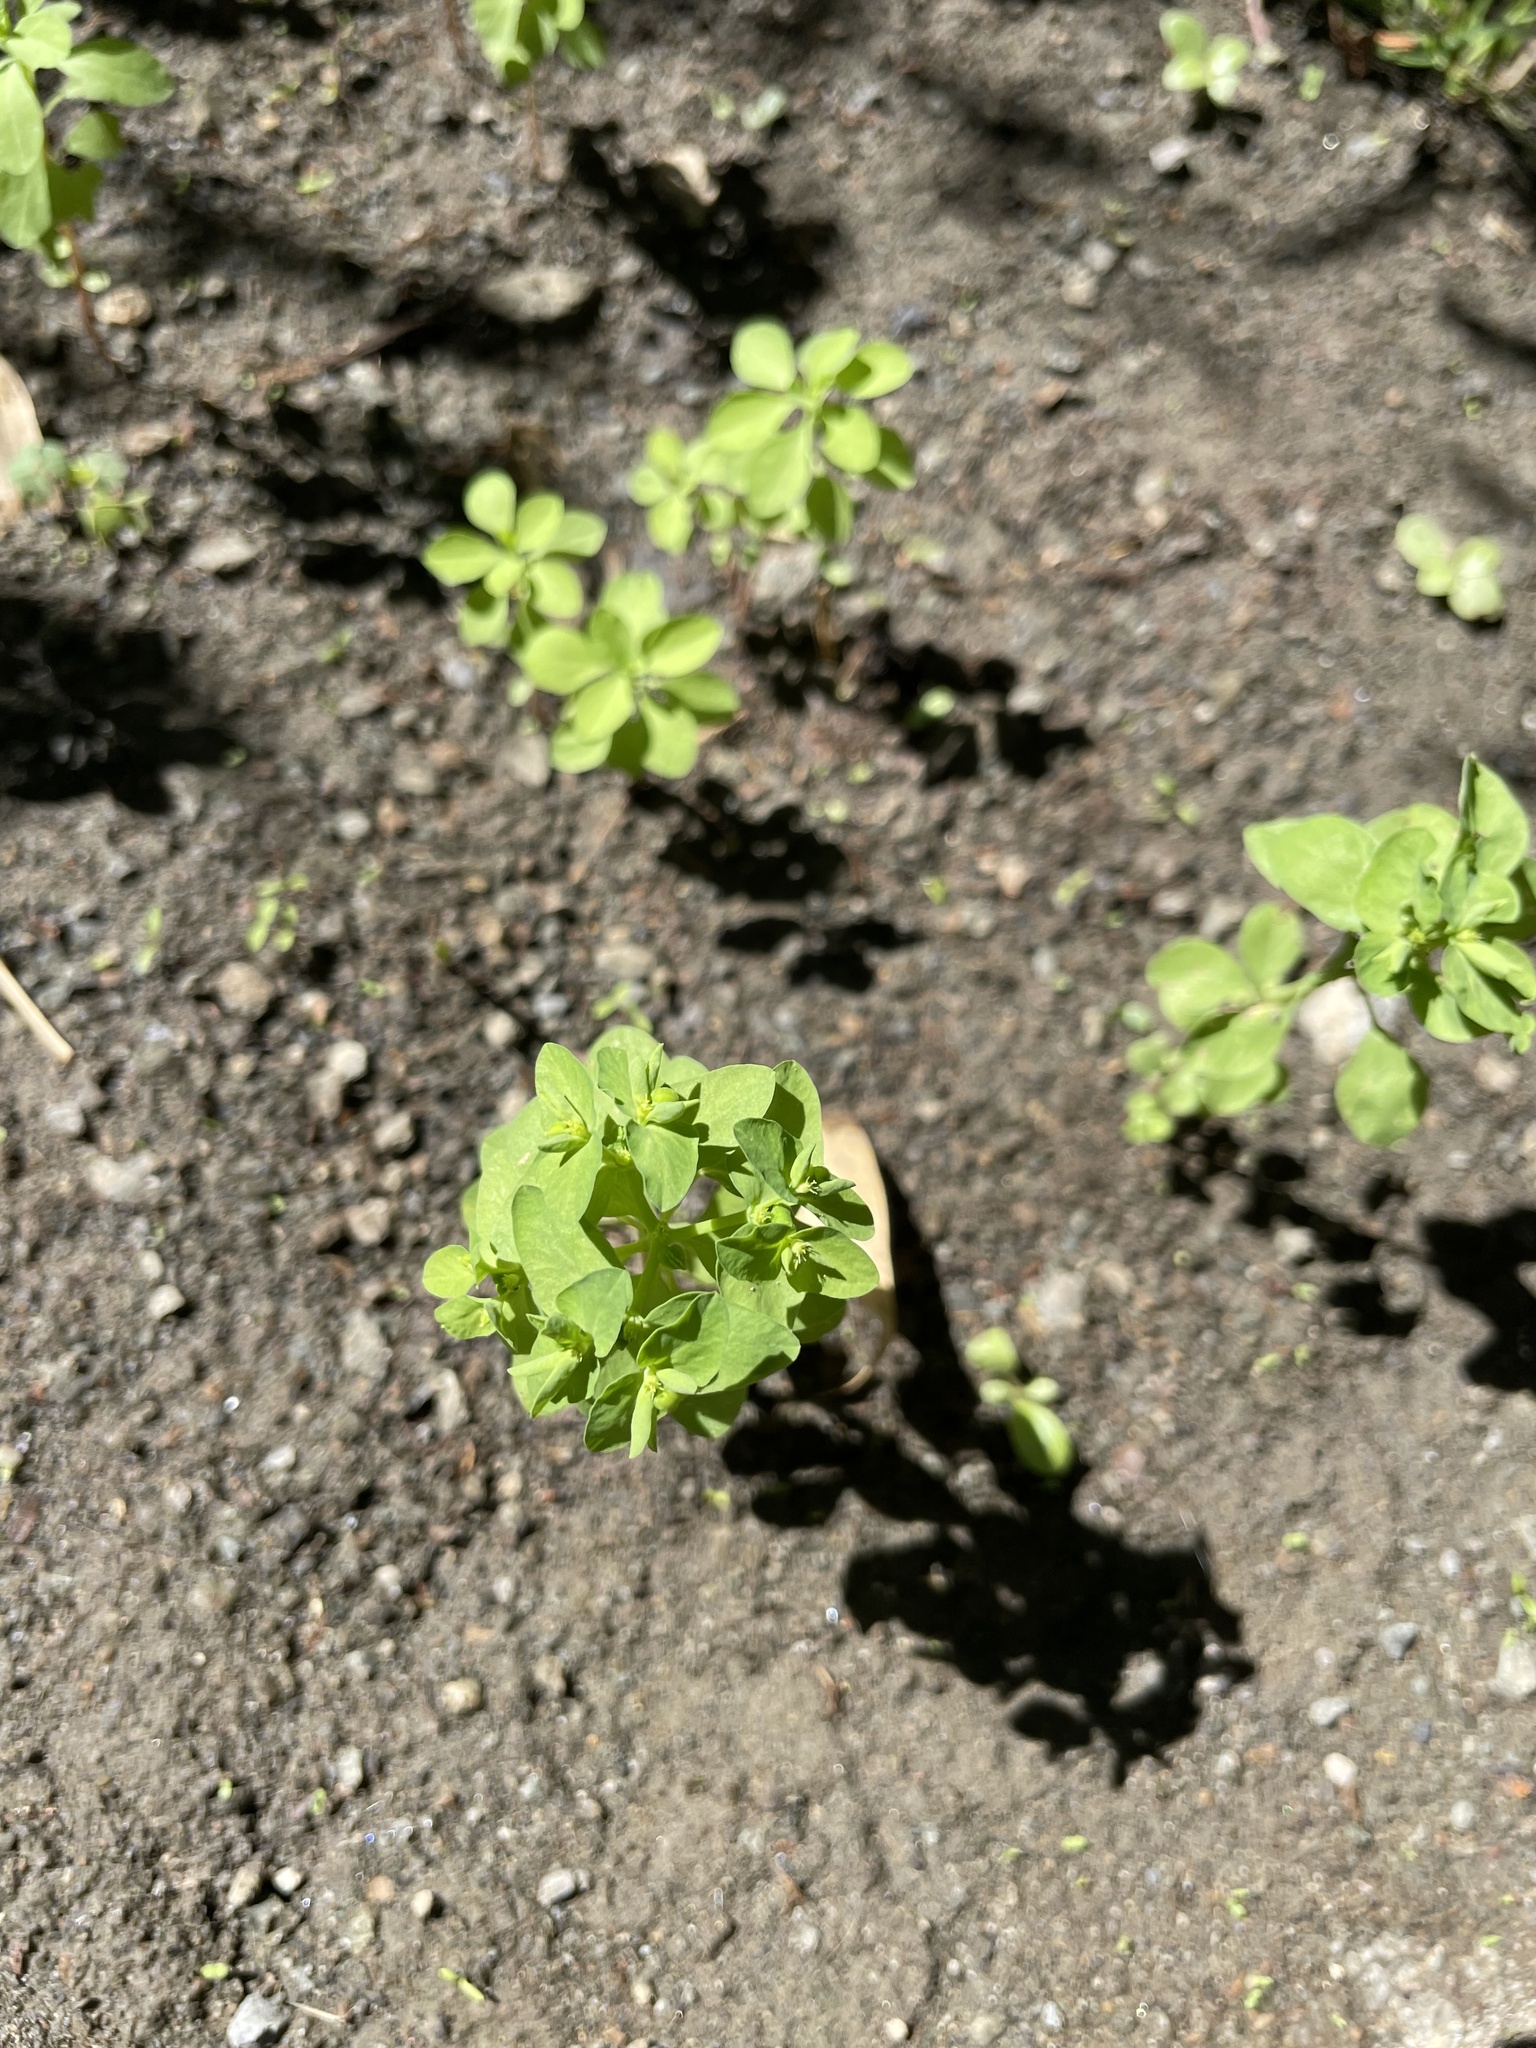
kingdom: Plantae
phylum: Tracheophyta
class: Magnoliopsida
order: Malpighiales
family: Euphorbiaceae
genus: Euphorbia
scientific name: Euphorbia peplus
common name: Petty spurge
